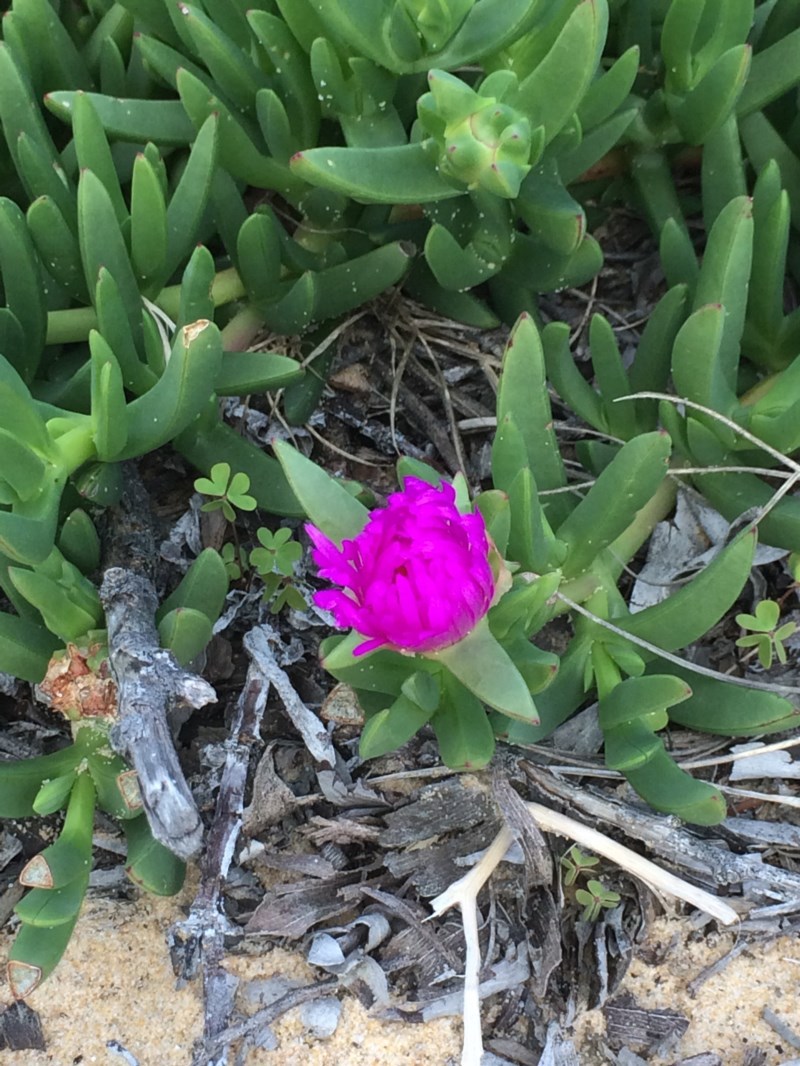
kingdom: Plantae
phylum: Tracheophyta
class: Magnoliopsida
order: Caryophyllales
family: Aizoaceae
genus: Carpobrotus
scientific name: Carpobrotus glaucescens
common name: Angular sea-fig
